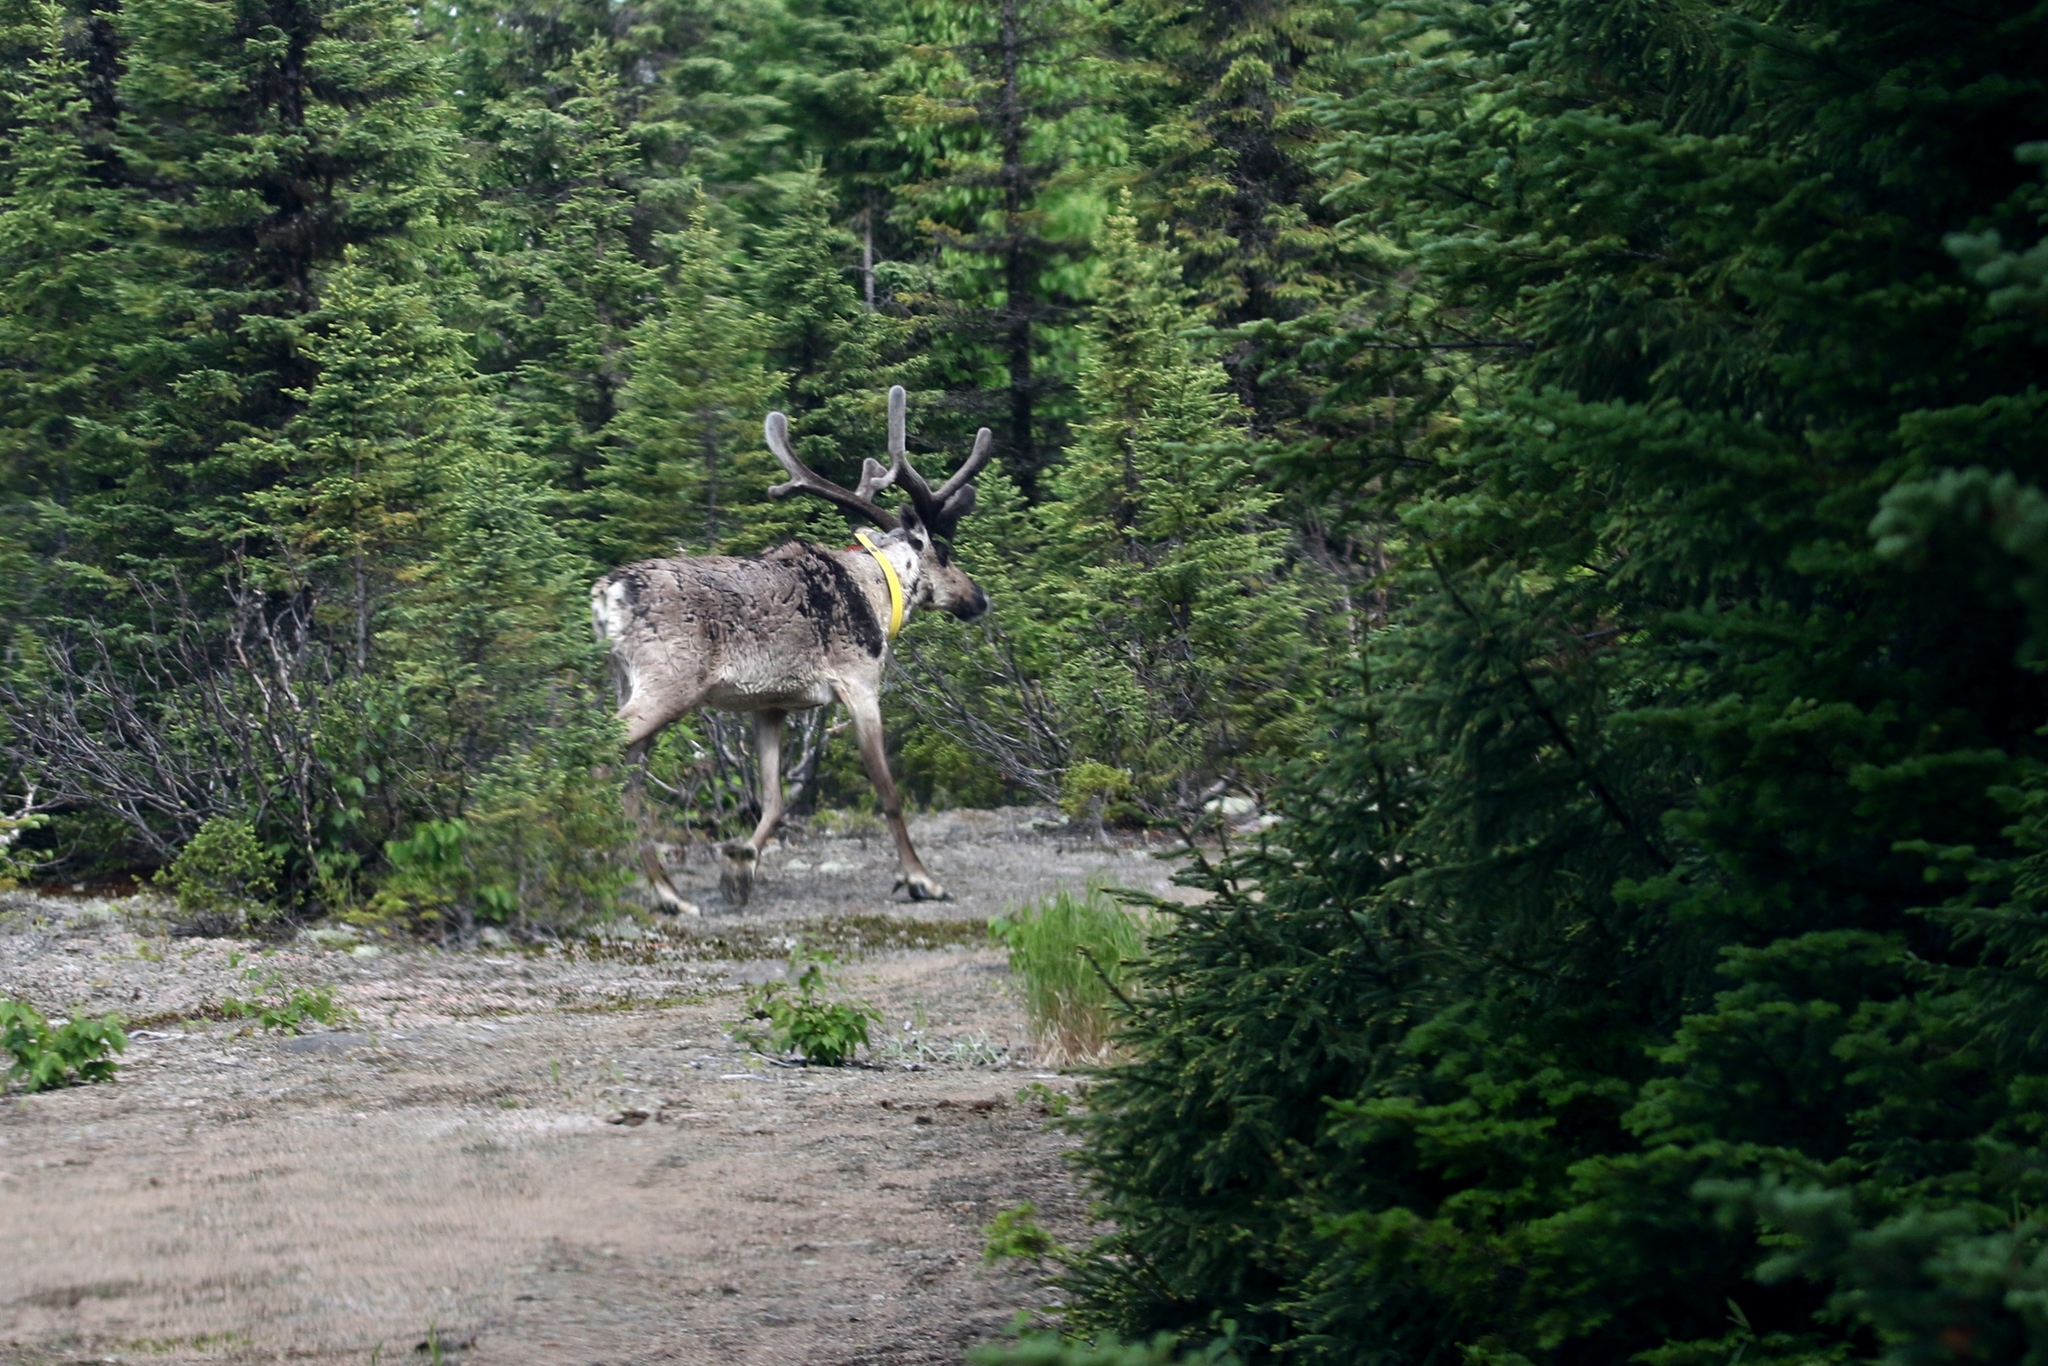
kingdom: Animalia
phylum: Chordata
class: Mammalia
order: Artiodactyla
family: Cervidae
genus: Rangifer
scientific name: Rangifer tarandus
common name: Reindeer
